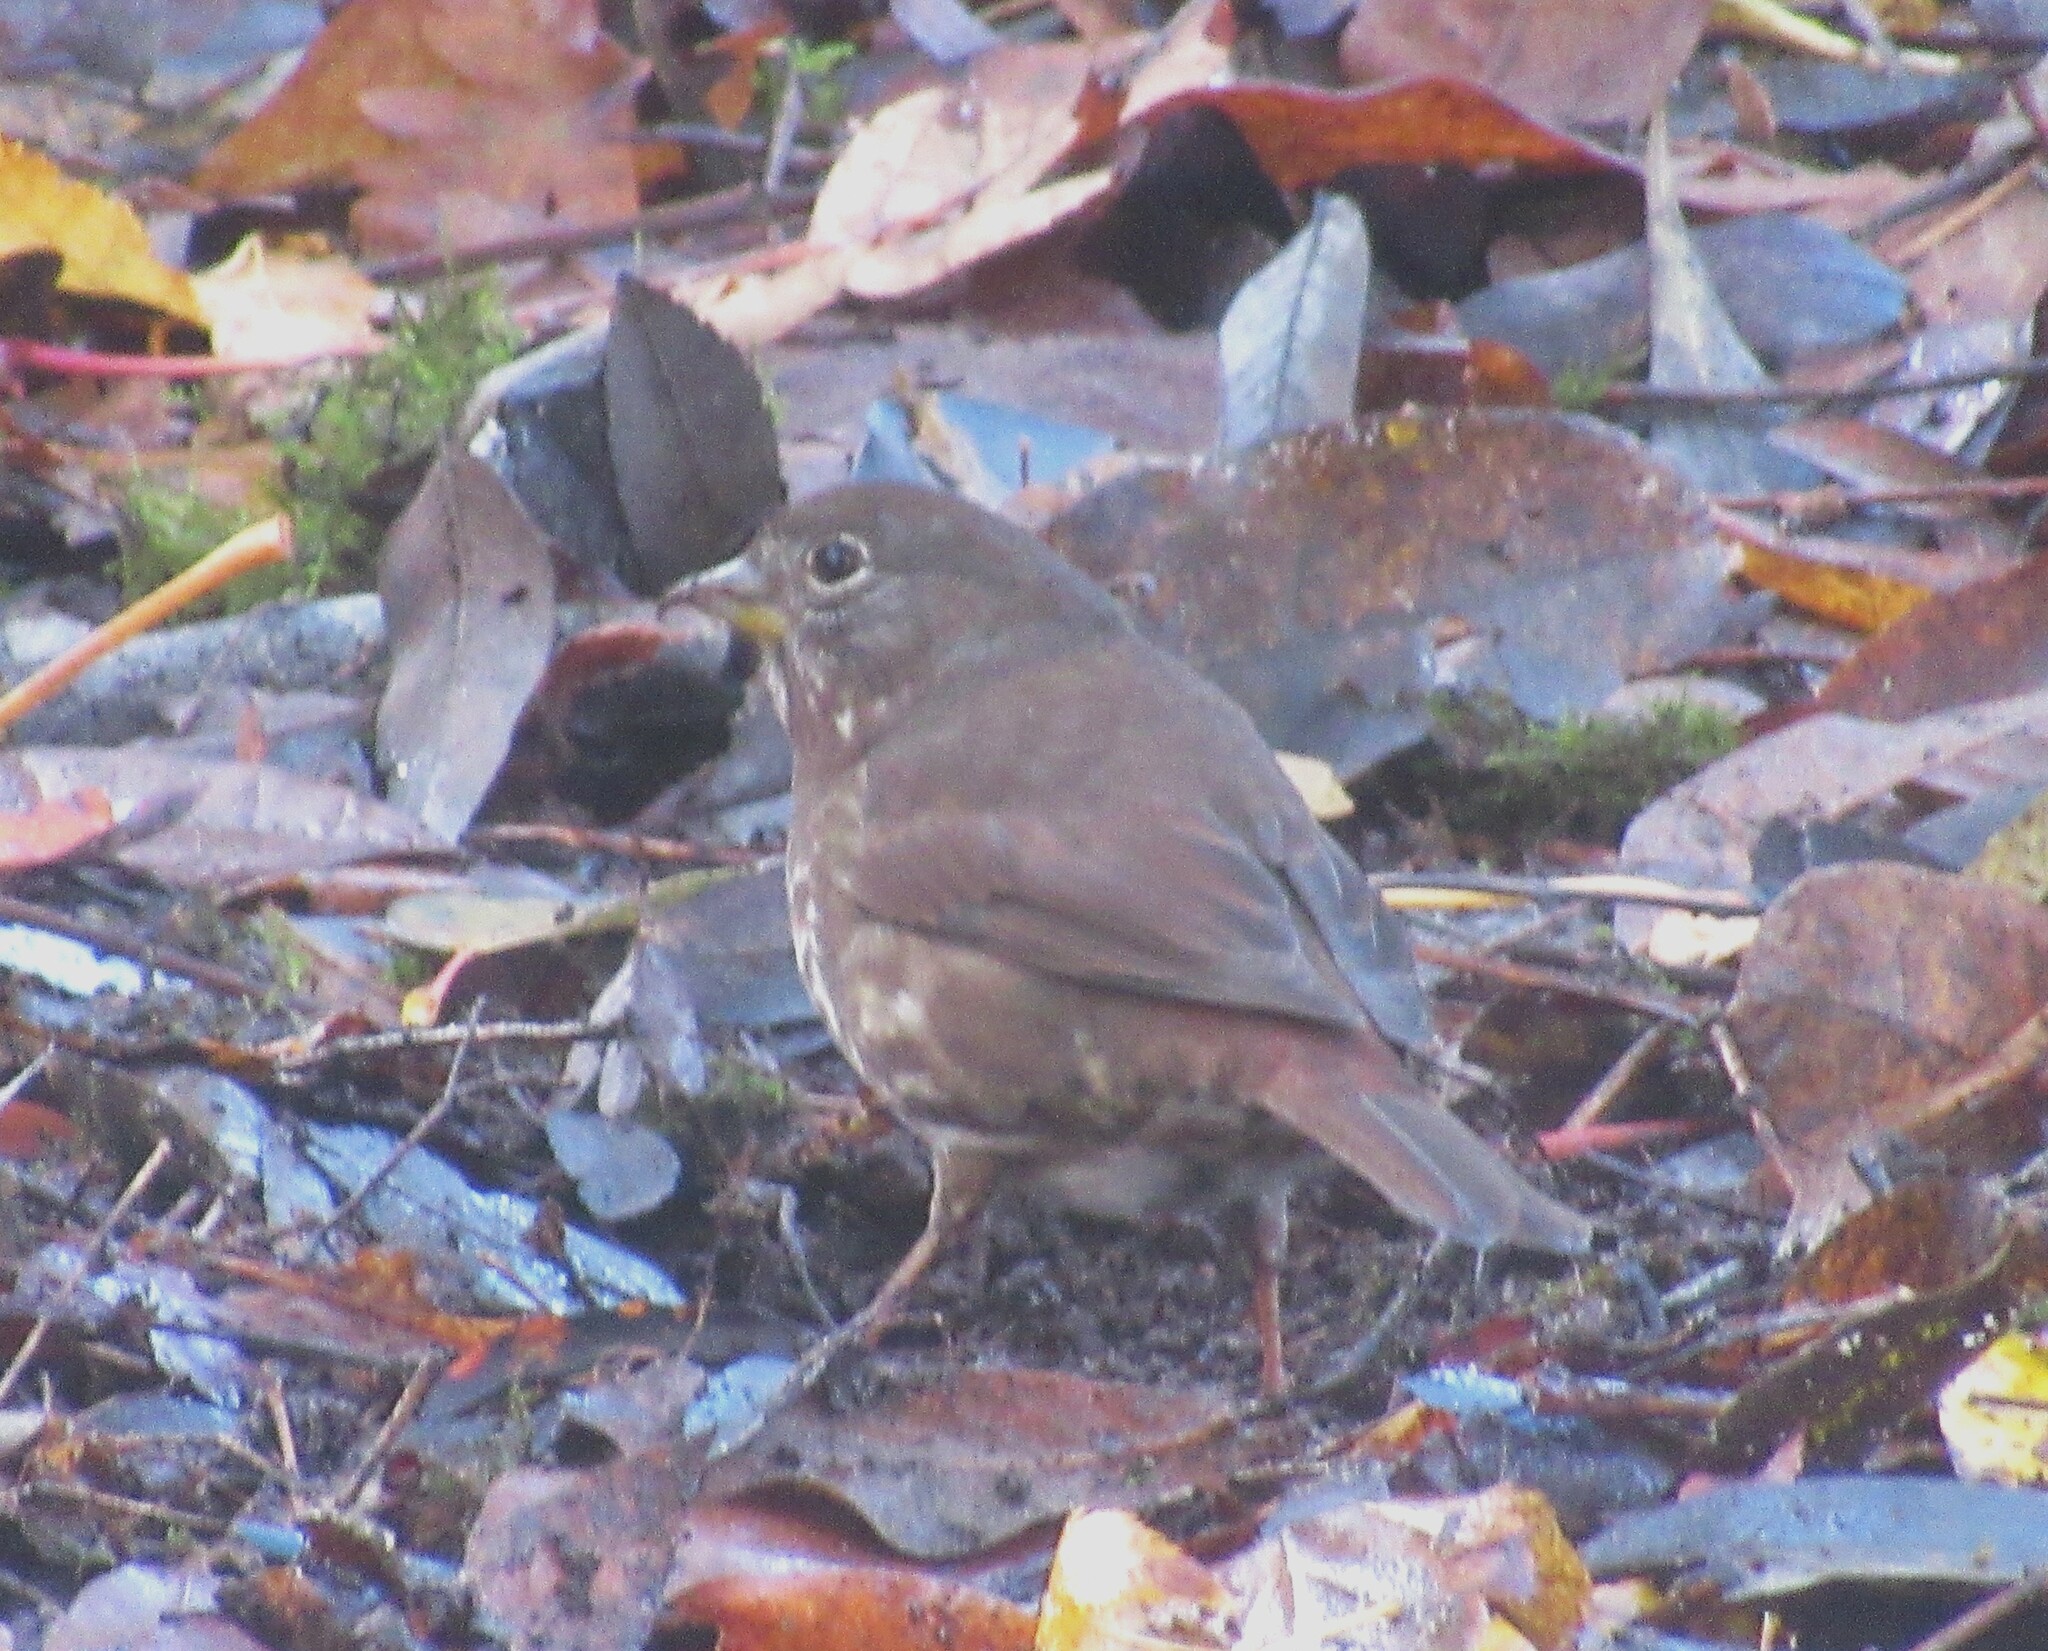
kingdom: Animalia
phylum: Chordata
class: Aves
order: Passeriformes
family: Passerellidae
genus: Passerella
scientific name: Passerella iliaca
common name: Fox sparrow
